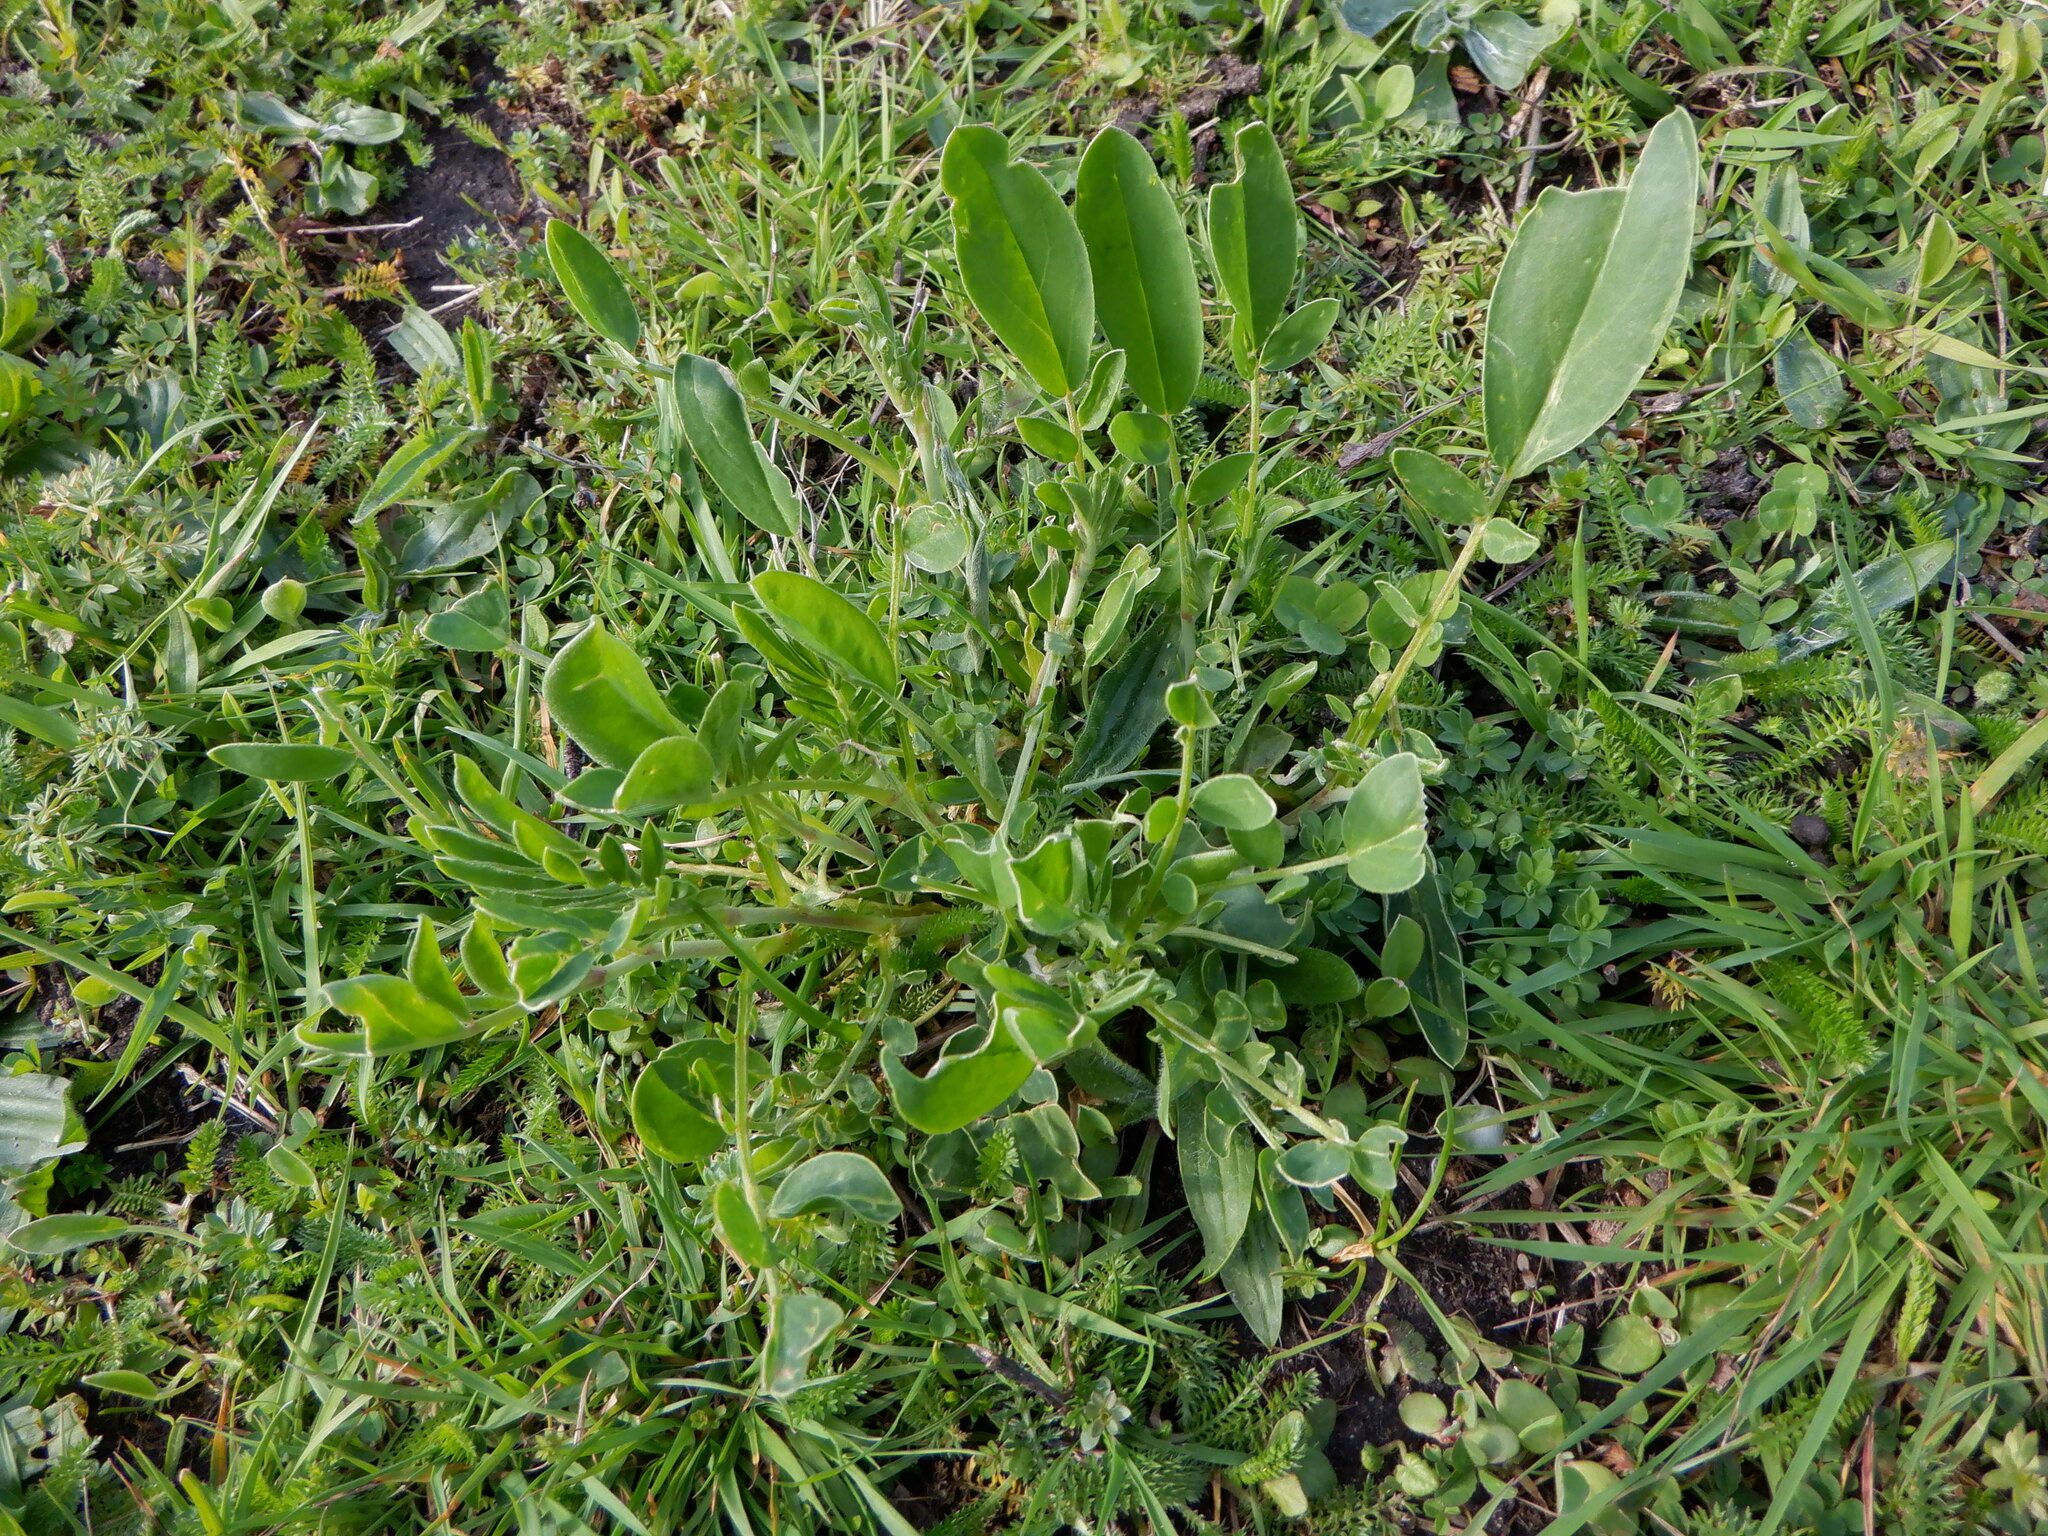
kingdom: Plantae
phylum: Tracheophyta
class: Magnoliopsida
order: Fabales
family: Fabaceae
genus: Anthyllis
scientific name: Anthyllis vulneraria
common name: Kidney vetch
